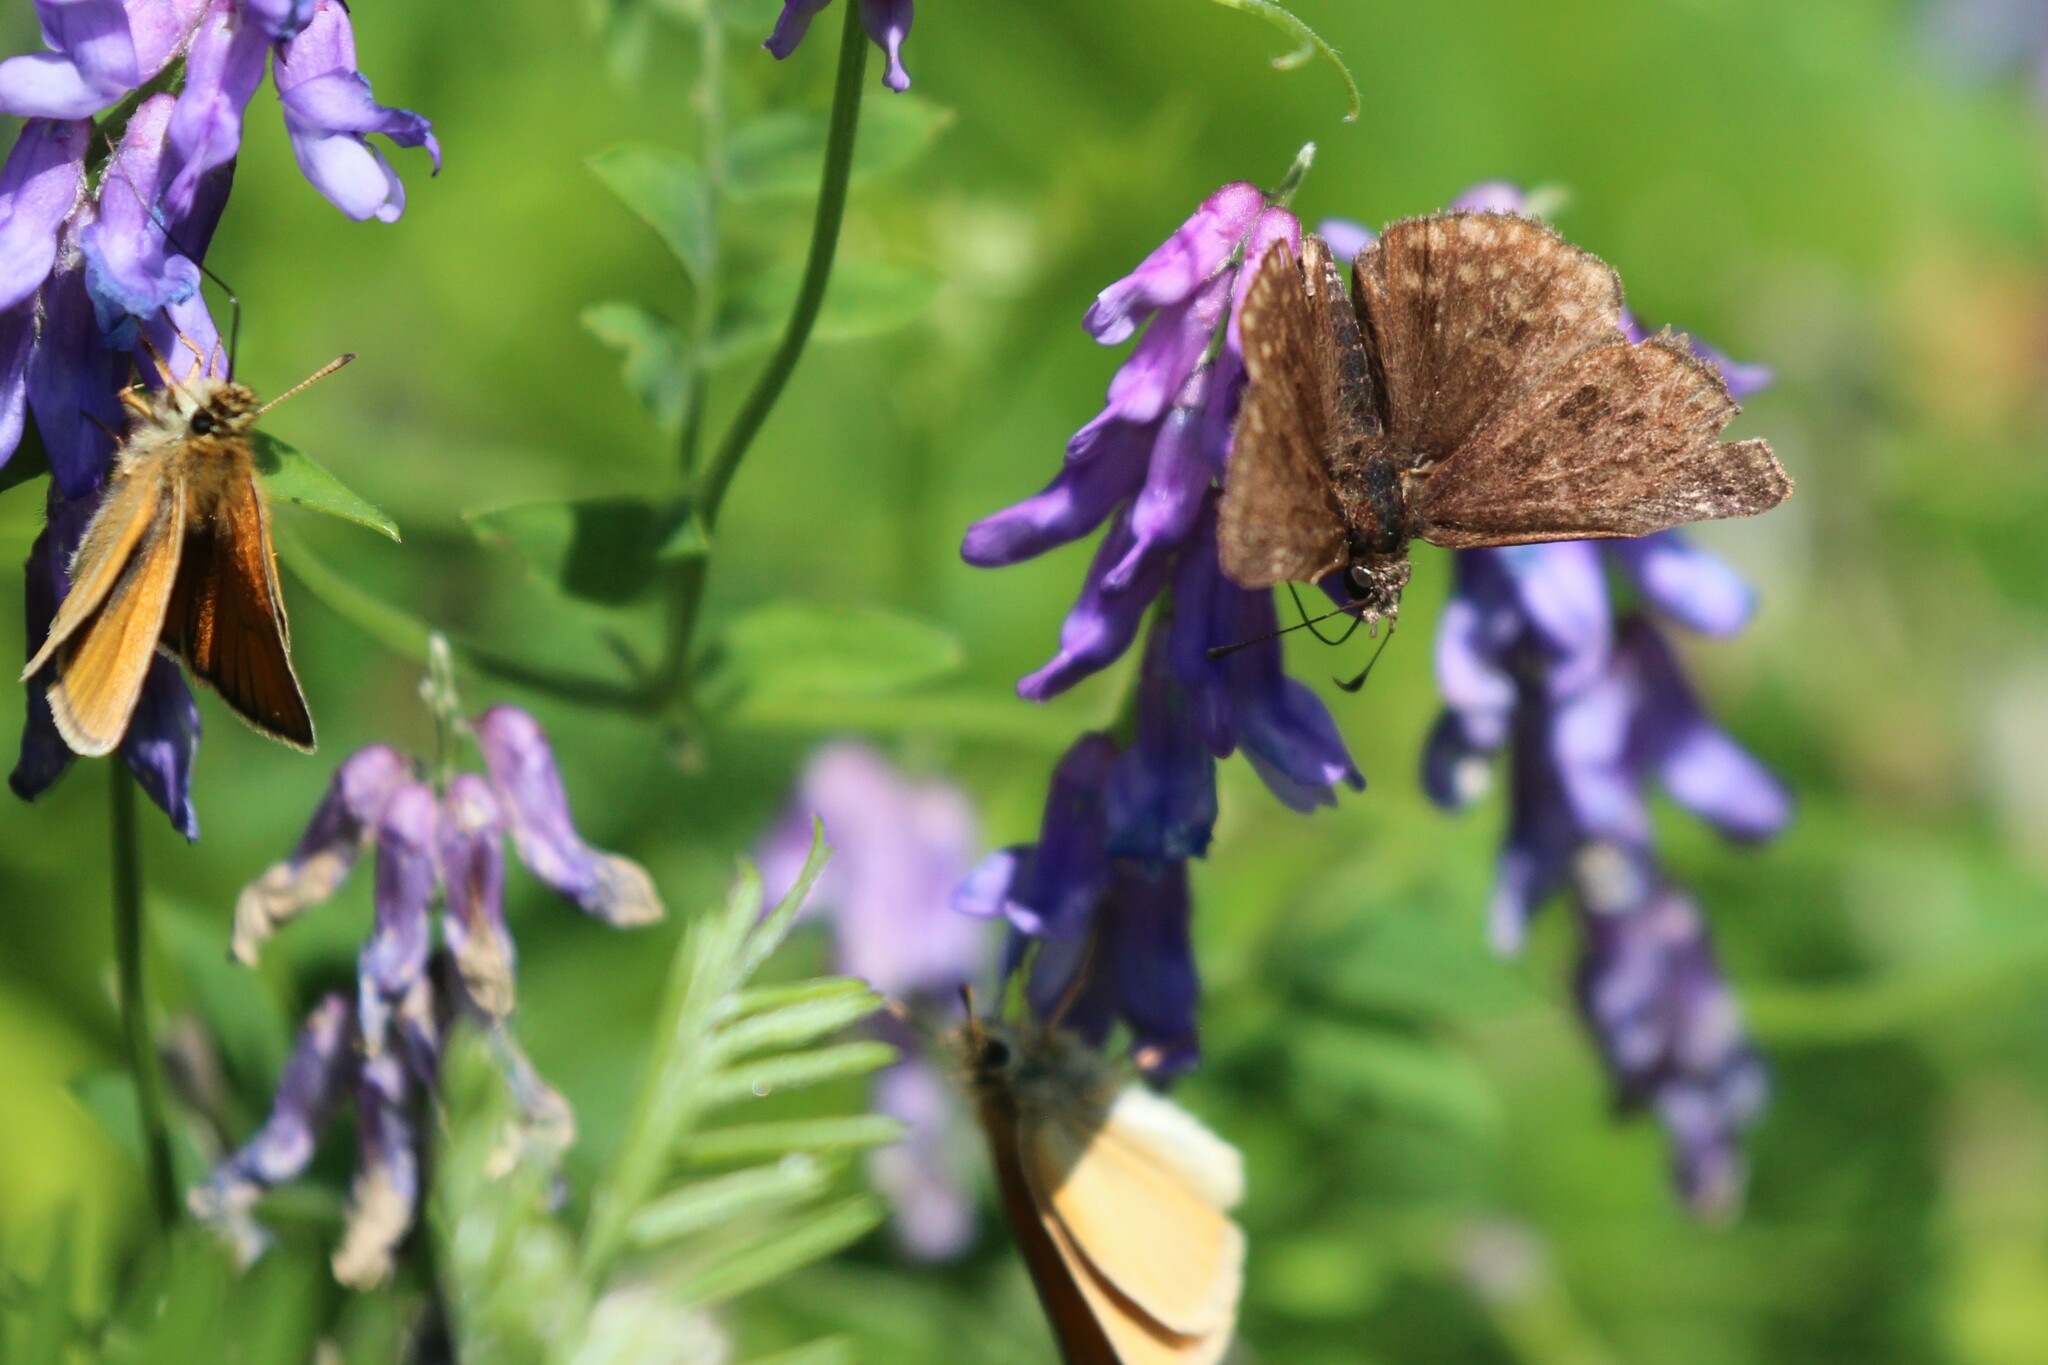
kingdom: Animalia
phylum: Arthropoda
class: Insecta
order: Lepidoptera
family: Hesperiidae
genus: Erynnis
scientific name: Erynnis icelus
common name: Dreamy duskywing
